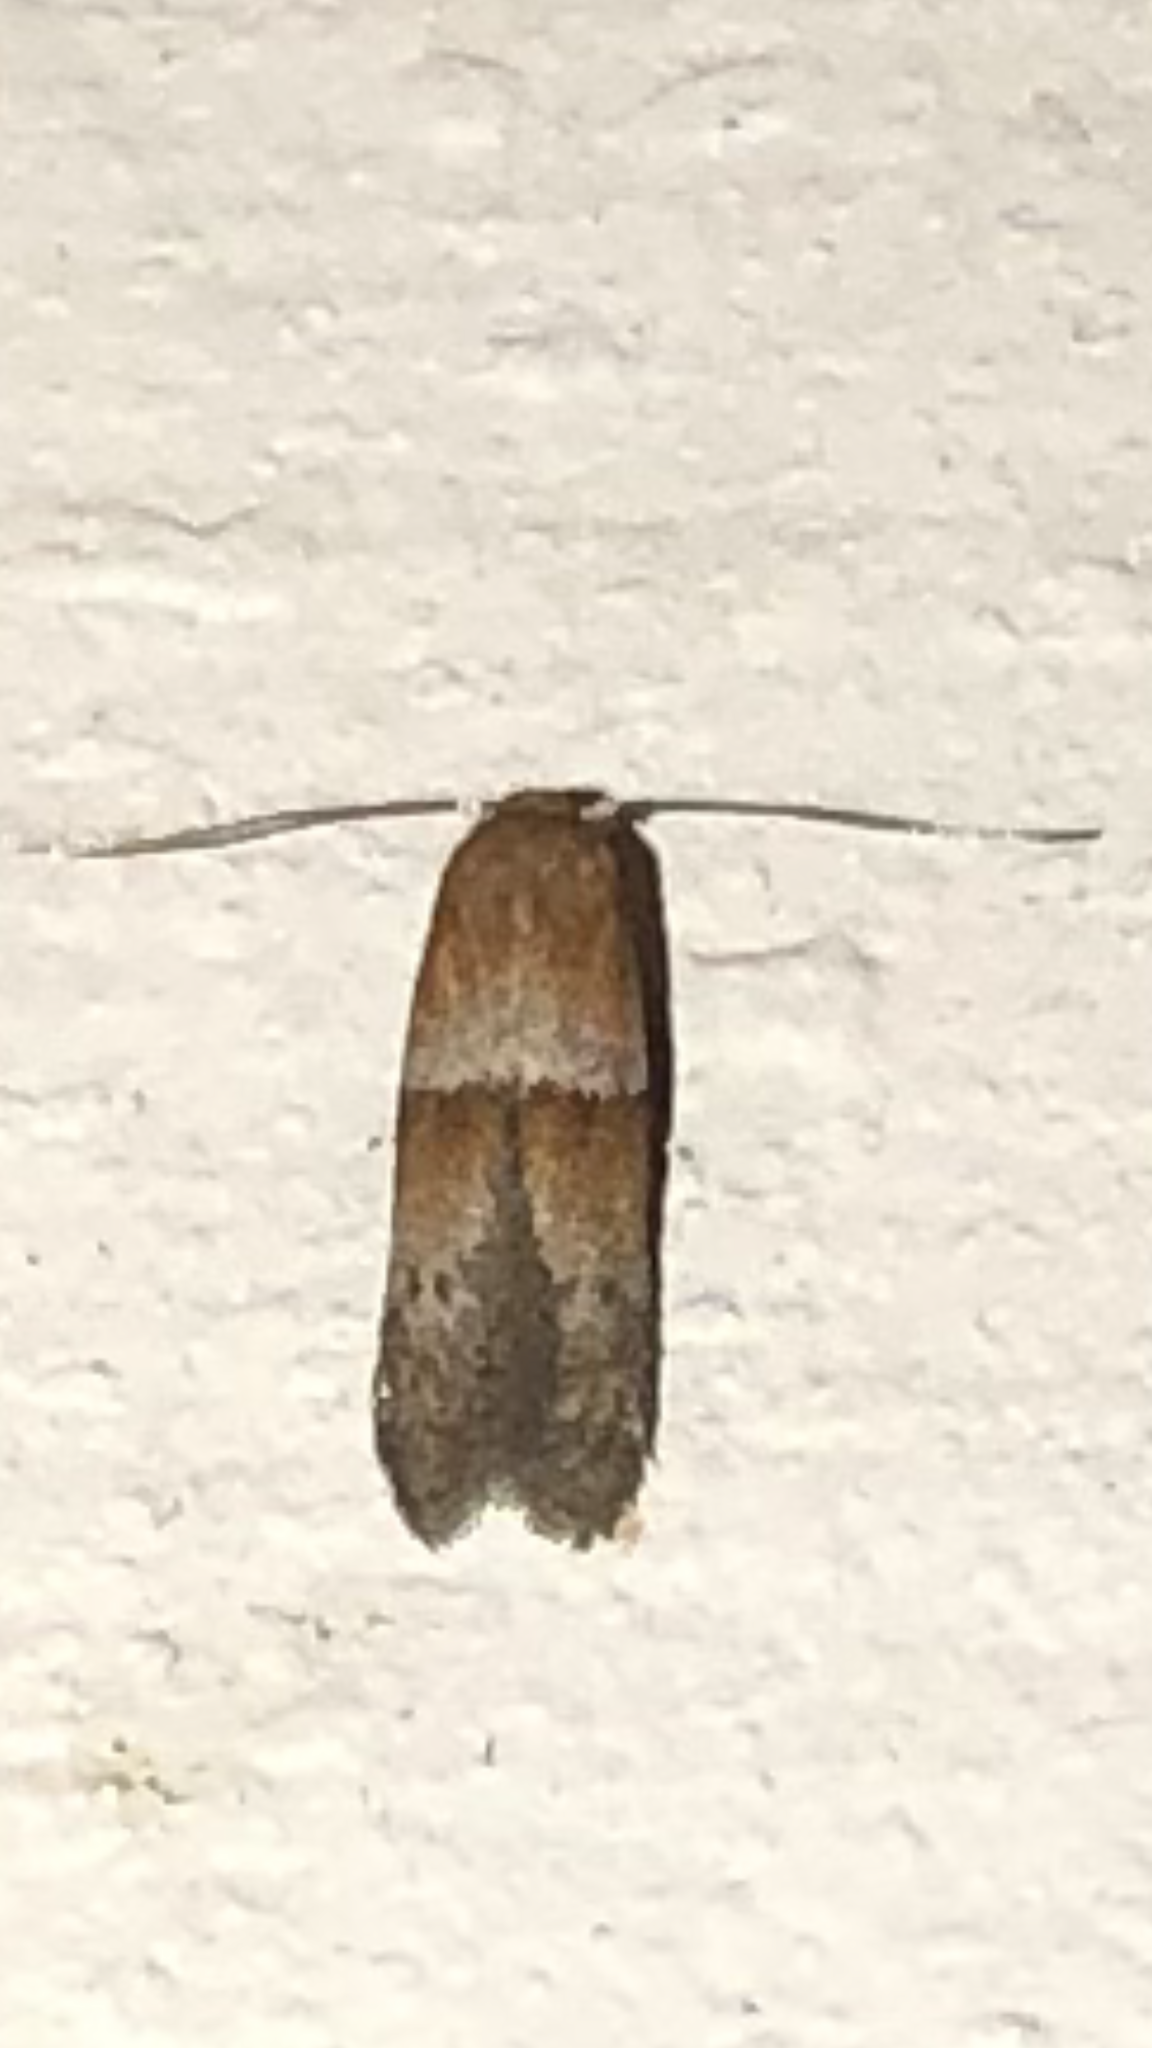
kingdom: Animalia
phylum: Arthropoda
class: Insecta
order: Lepidoptera
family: Blastobasidae
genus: Blastobasis
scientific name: Blastobasis pulchella
